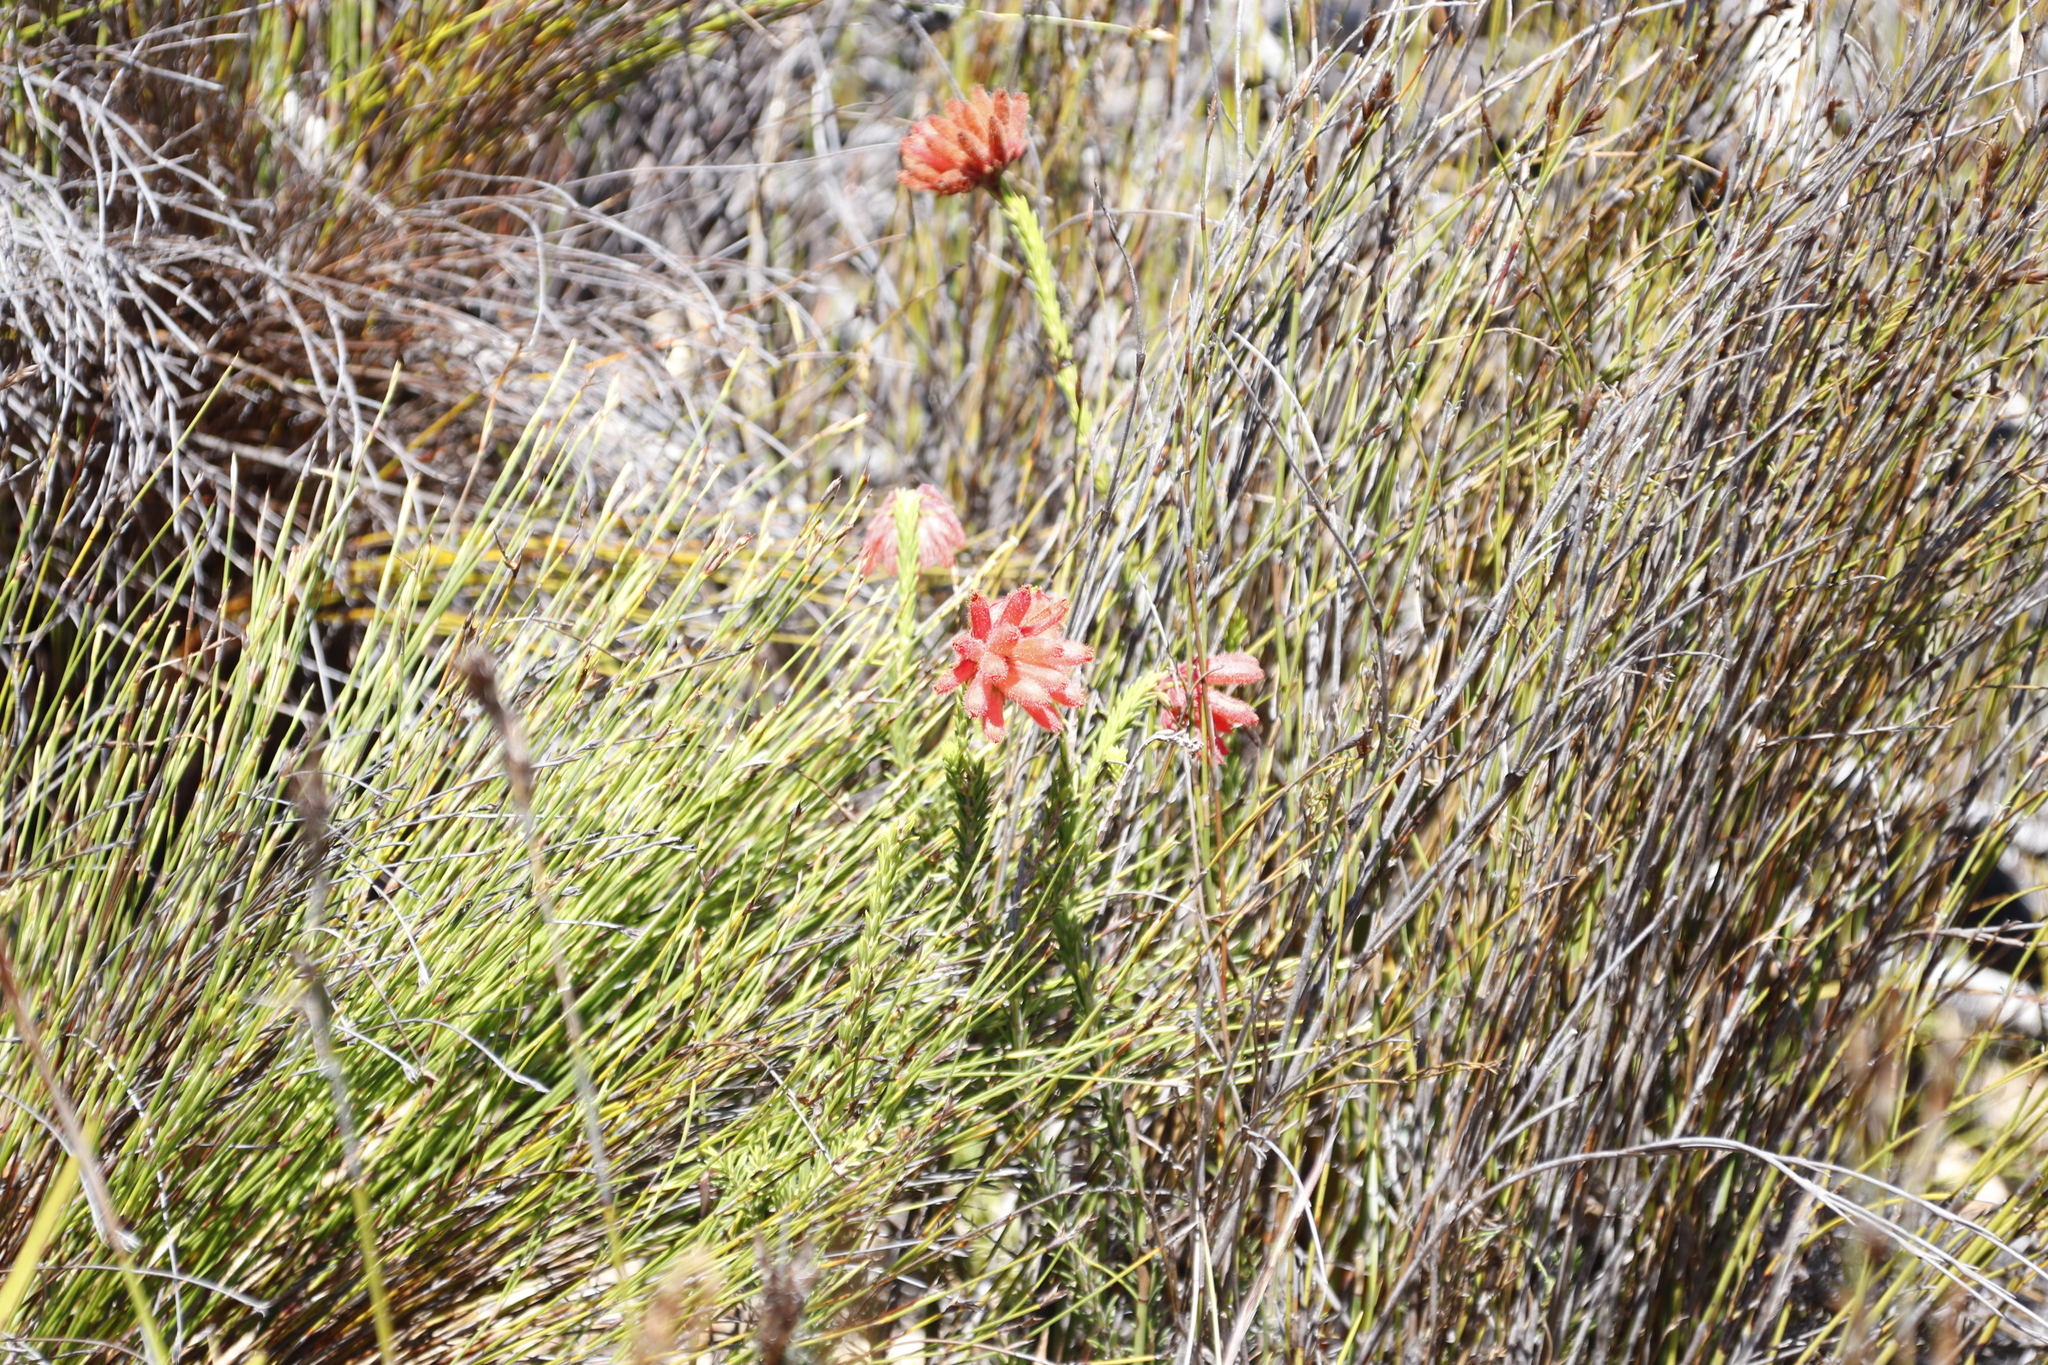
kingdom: Plantae
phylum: Tracheophyta
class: Magnoliopsida
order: Ericales
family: Ericaceae
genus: Erica
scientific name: Erica cerinthoides
